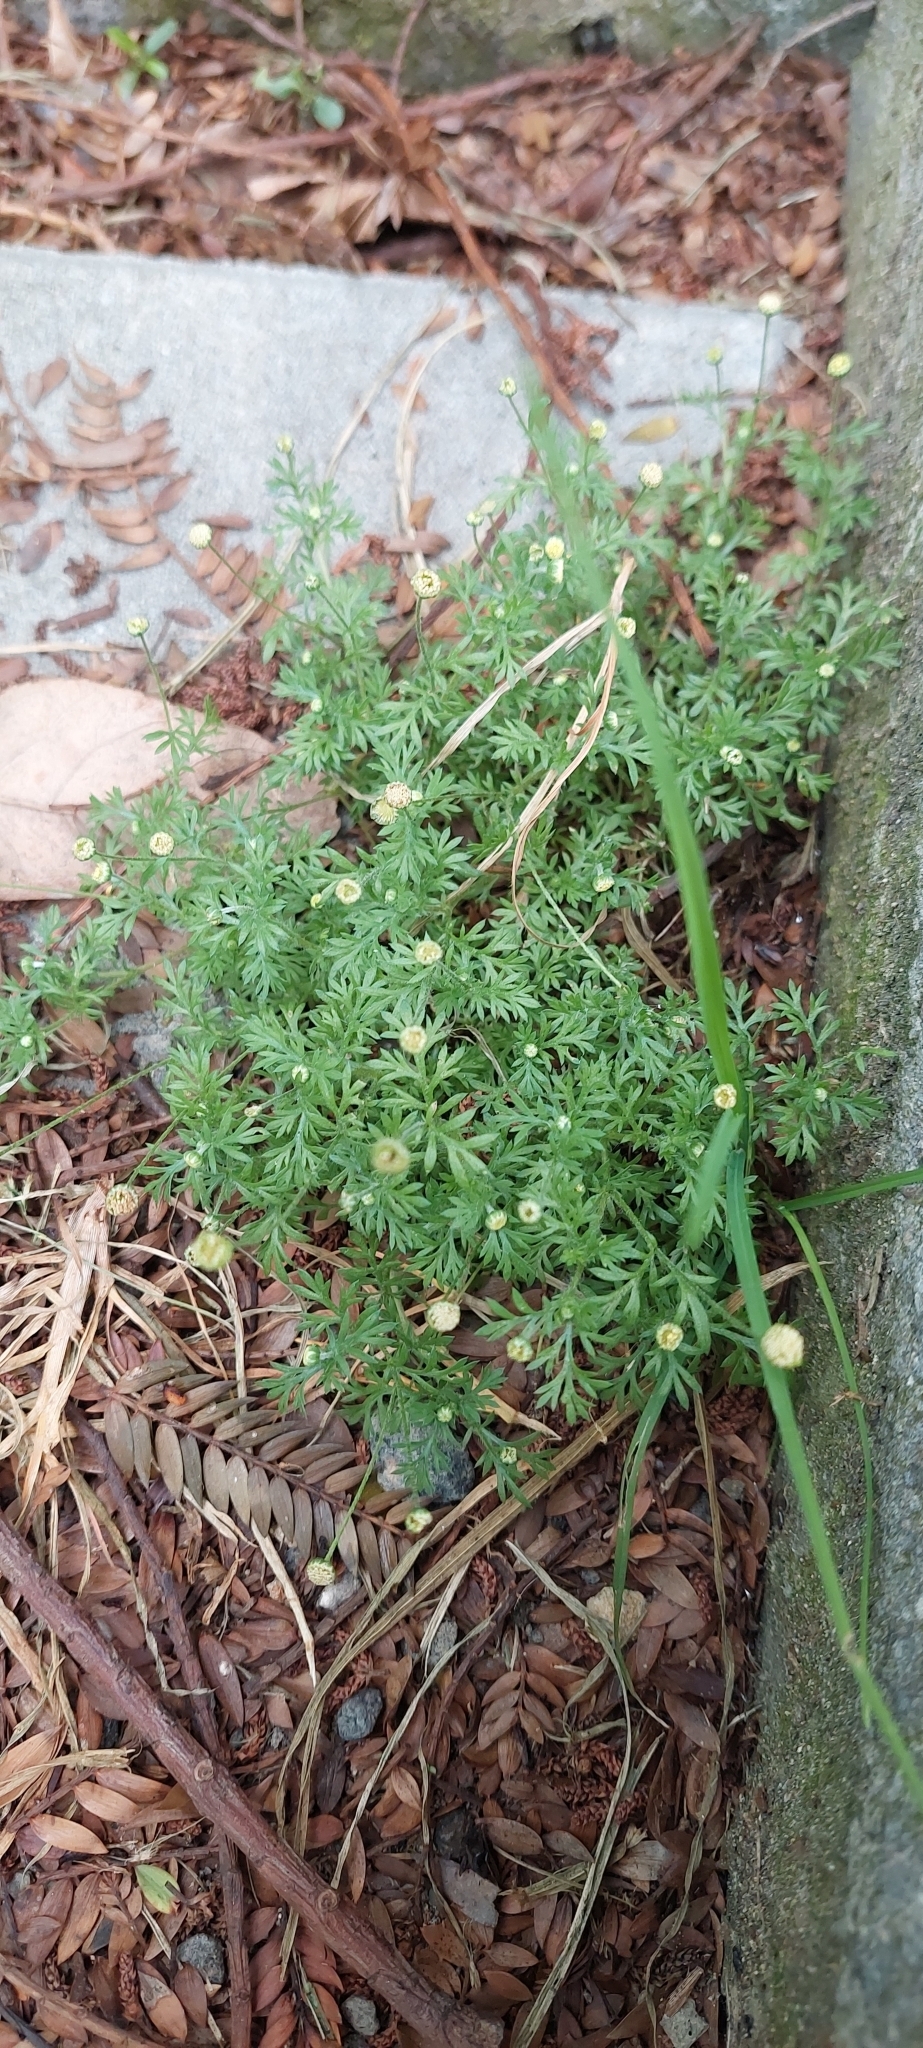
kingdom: Plantae
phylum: Tracheophyta
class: Magnoliopsida
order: Asterales
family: Asteraceae
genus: Cotula
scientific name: Cotula australis
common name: Australian waterbuttons
